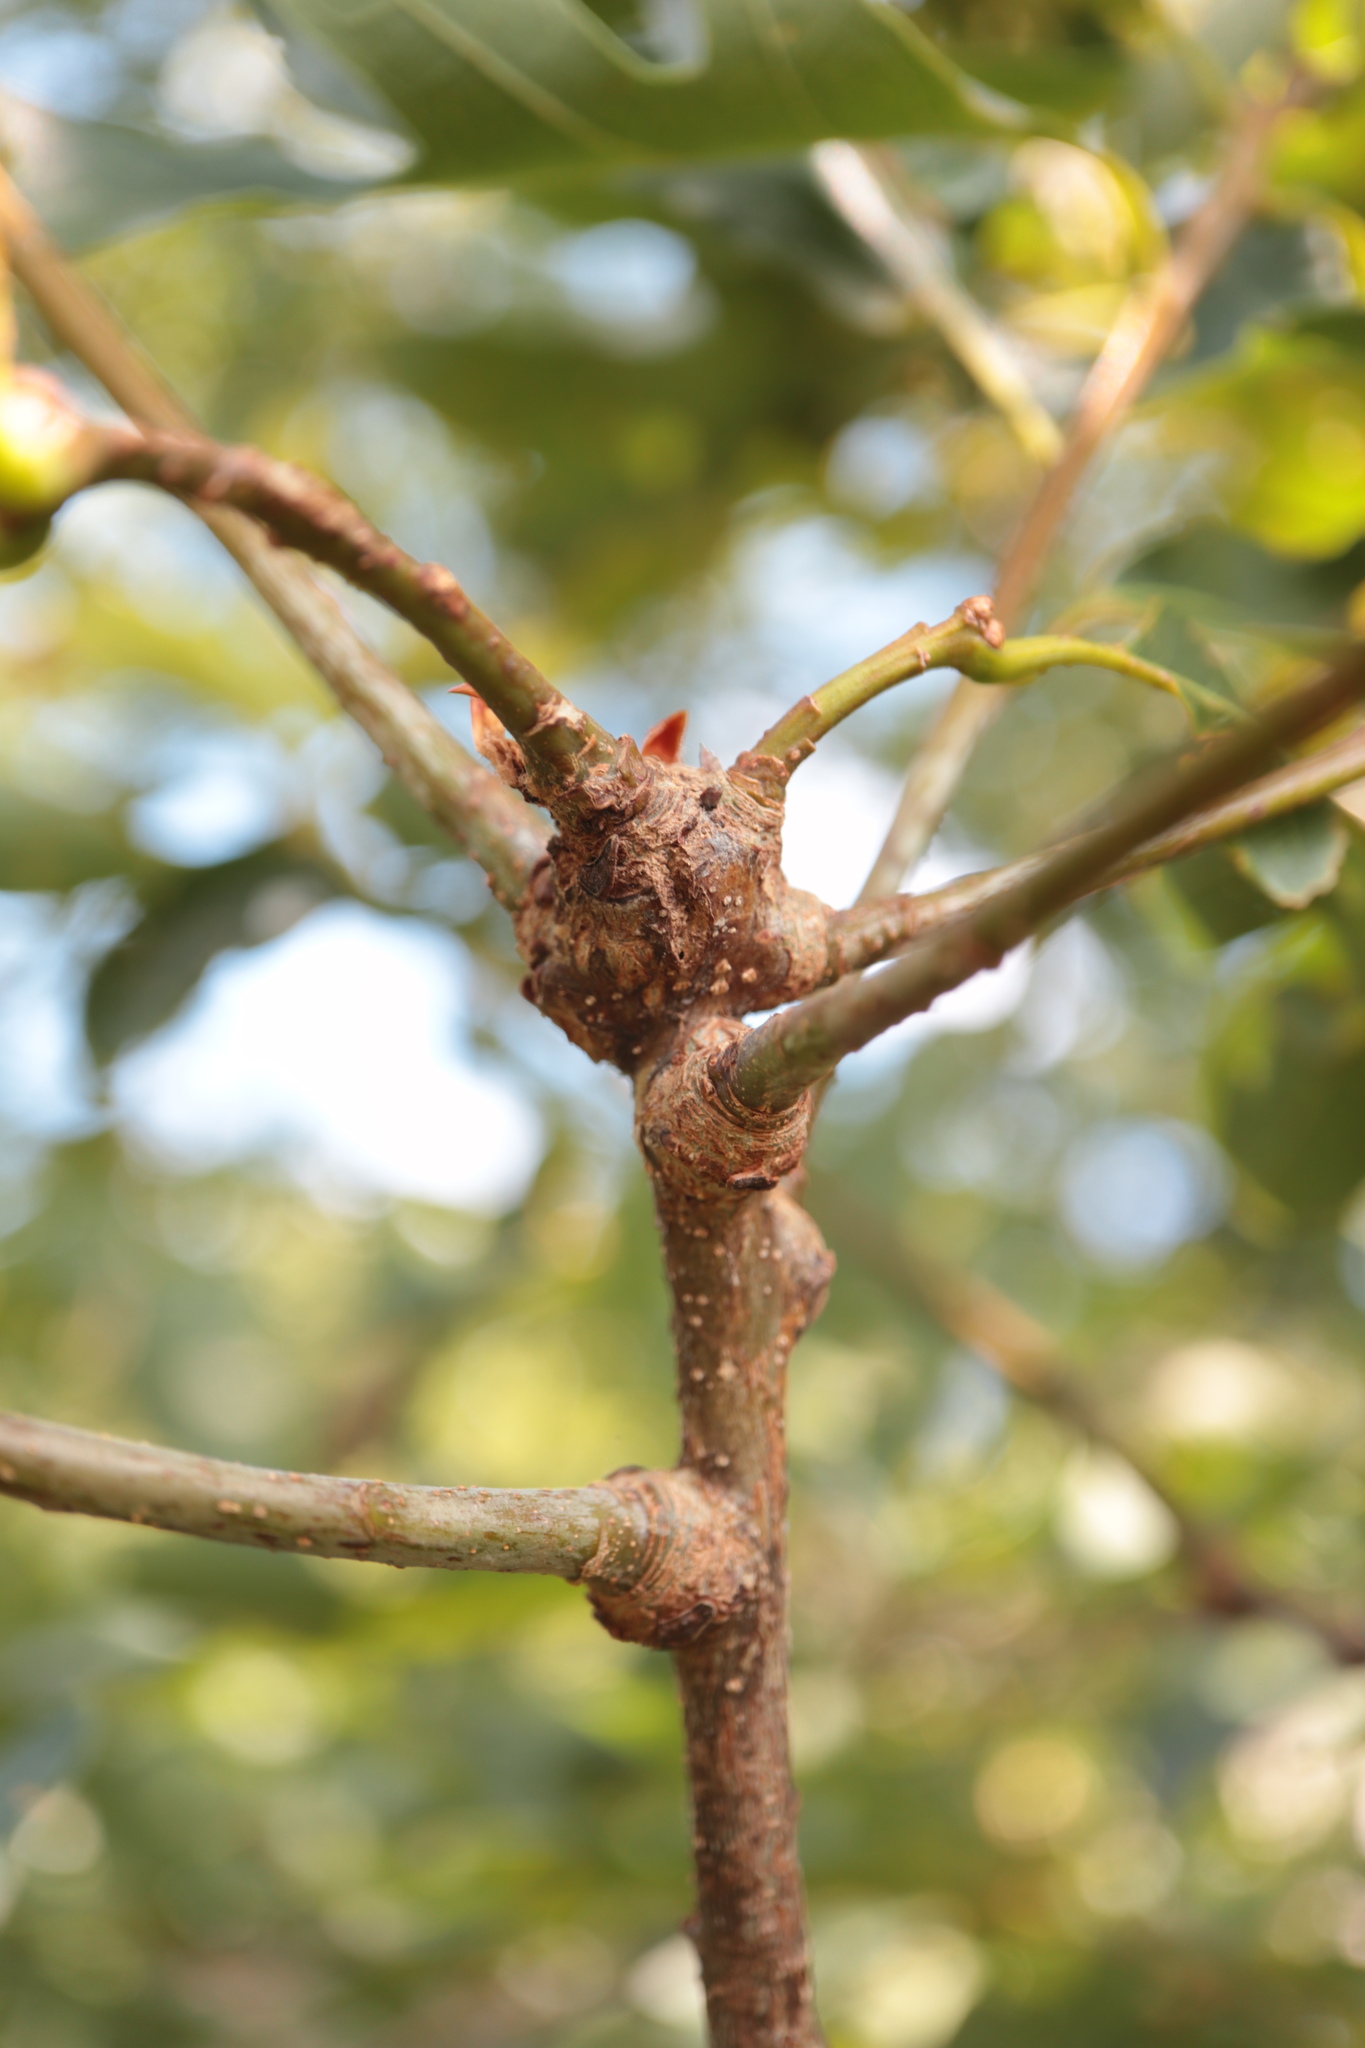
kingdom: Animalia
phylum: Arthropoda
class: Insecta
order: Hymenoptera
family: Cynipidae
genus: Loxaulus
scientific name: Loxaulus
